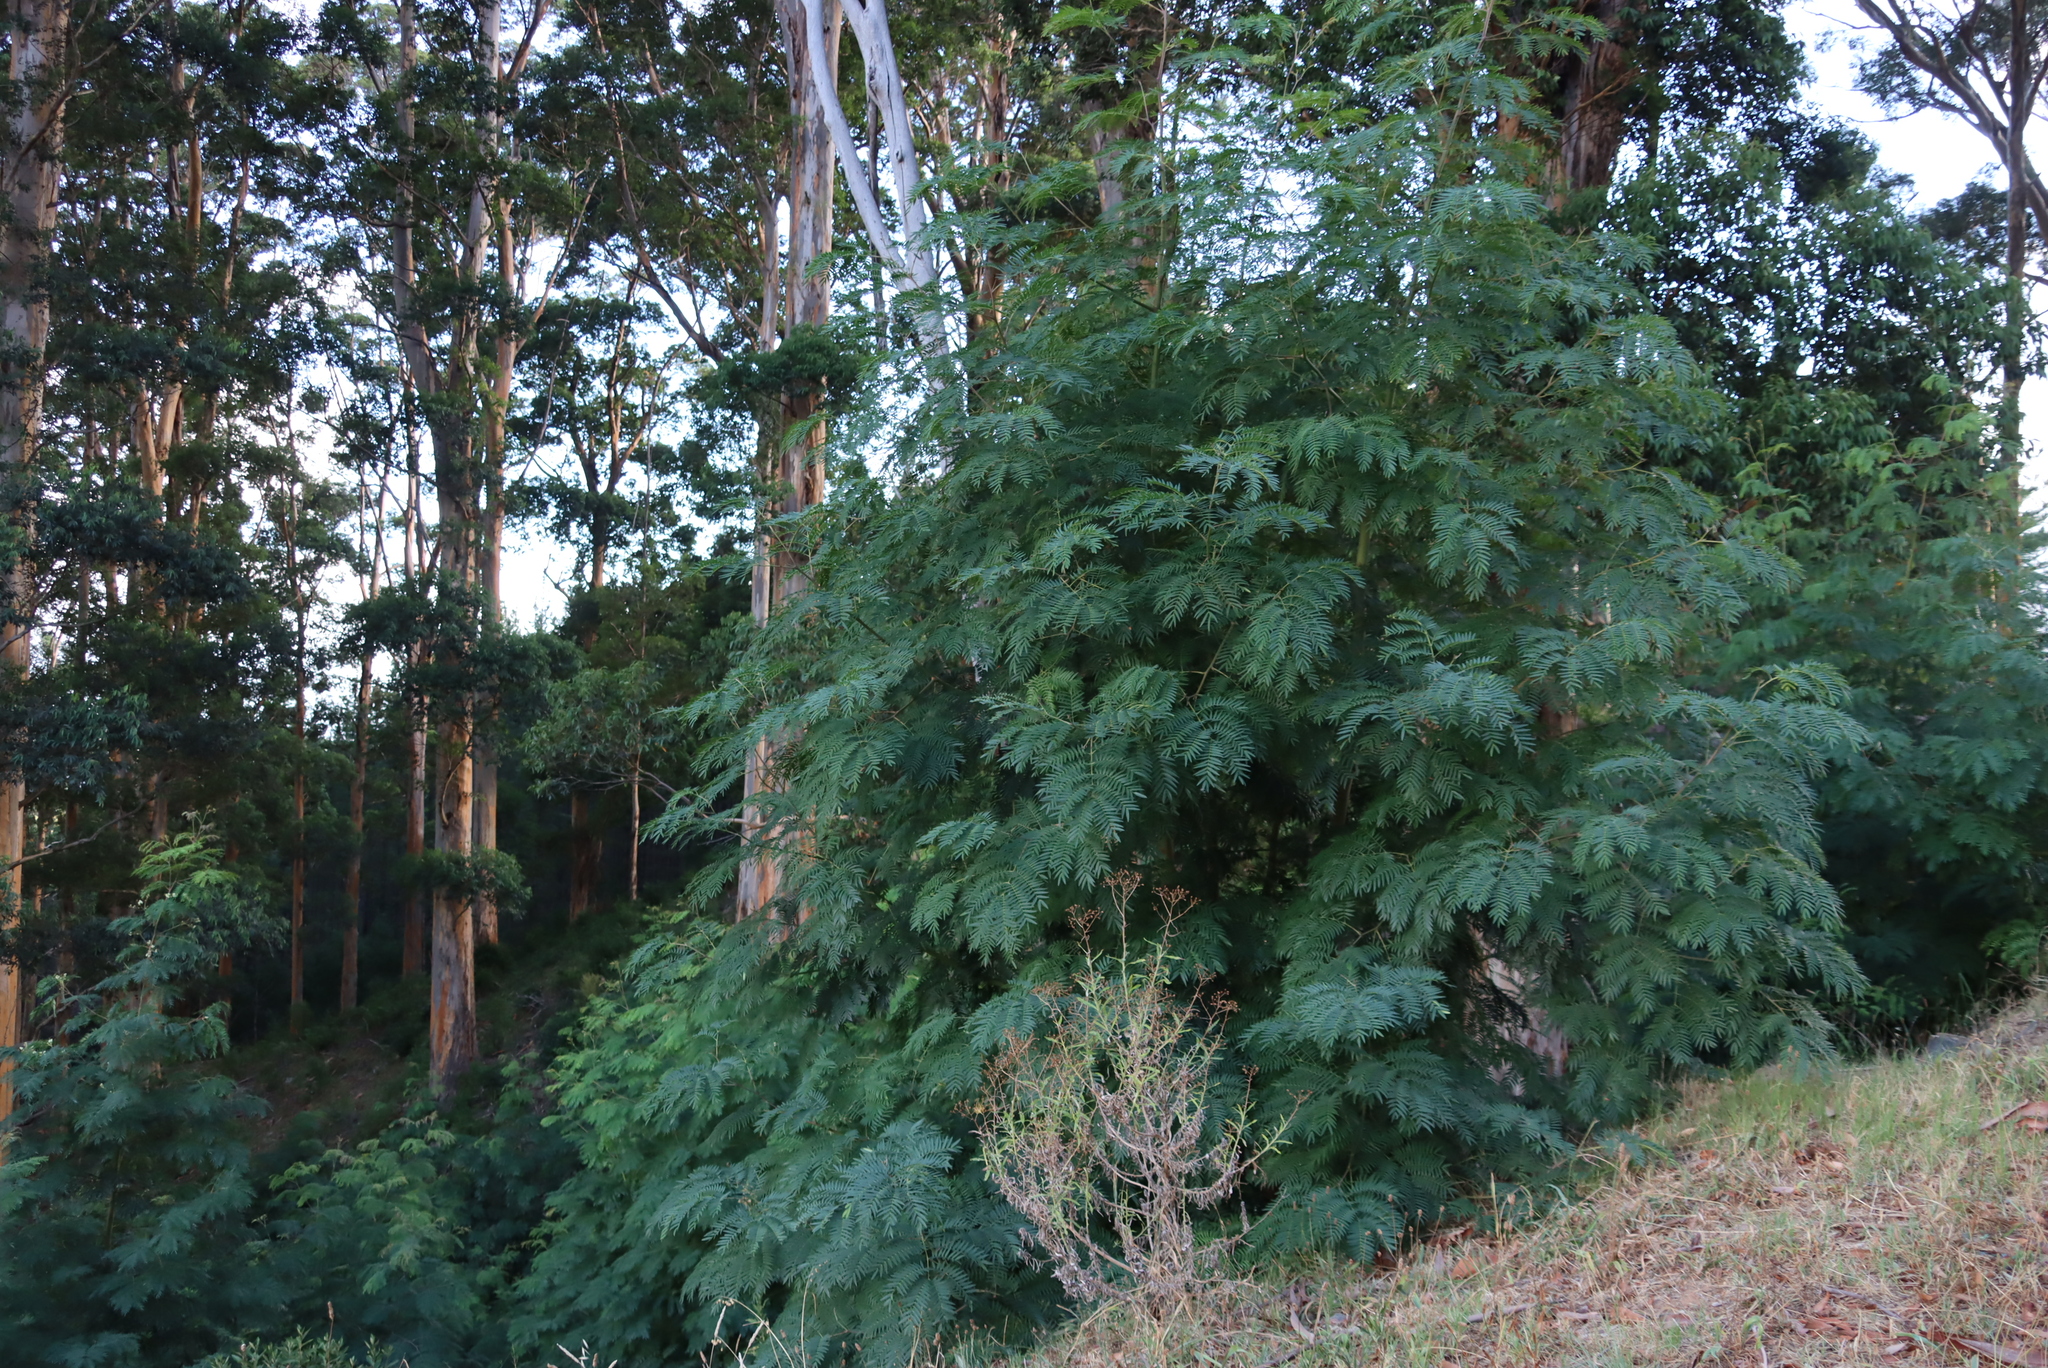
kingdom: Plantae
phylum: Tracheophyta
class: Magnoliopsida
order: Fabales
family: Fabaceae
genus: Acacia
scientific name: Acacia elata
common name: Cedar wattle
